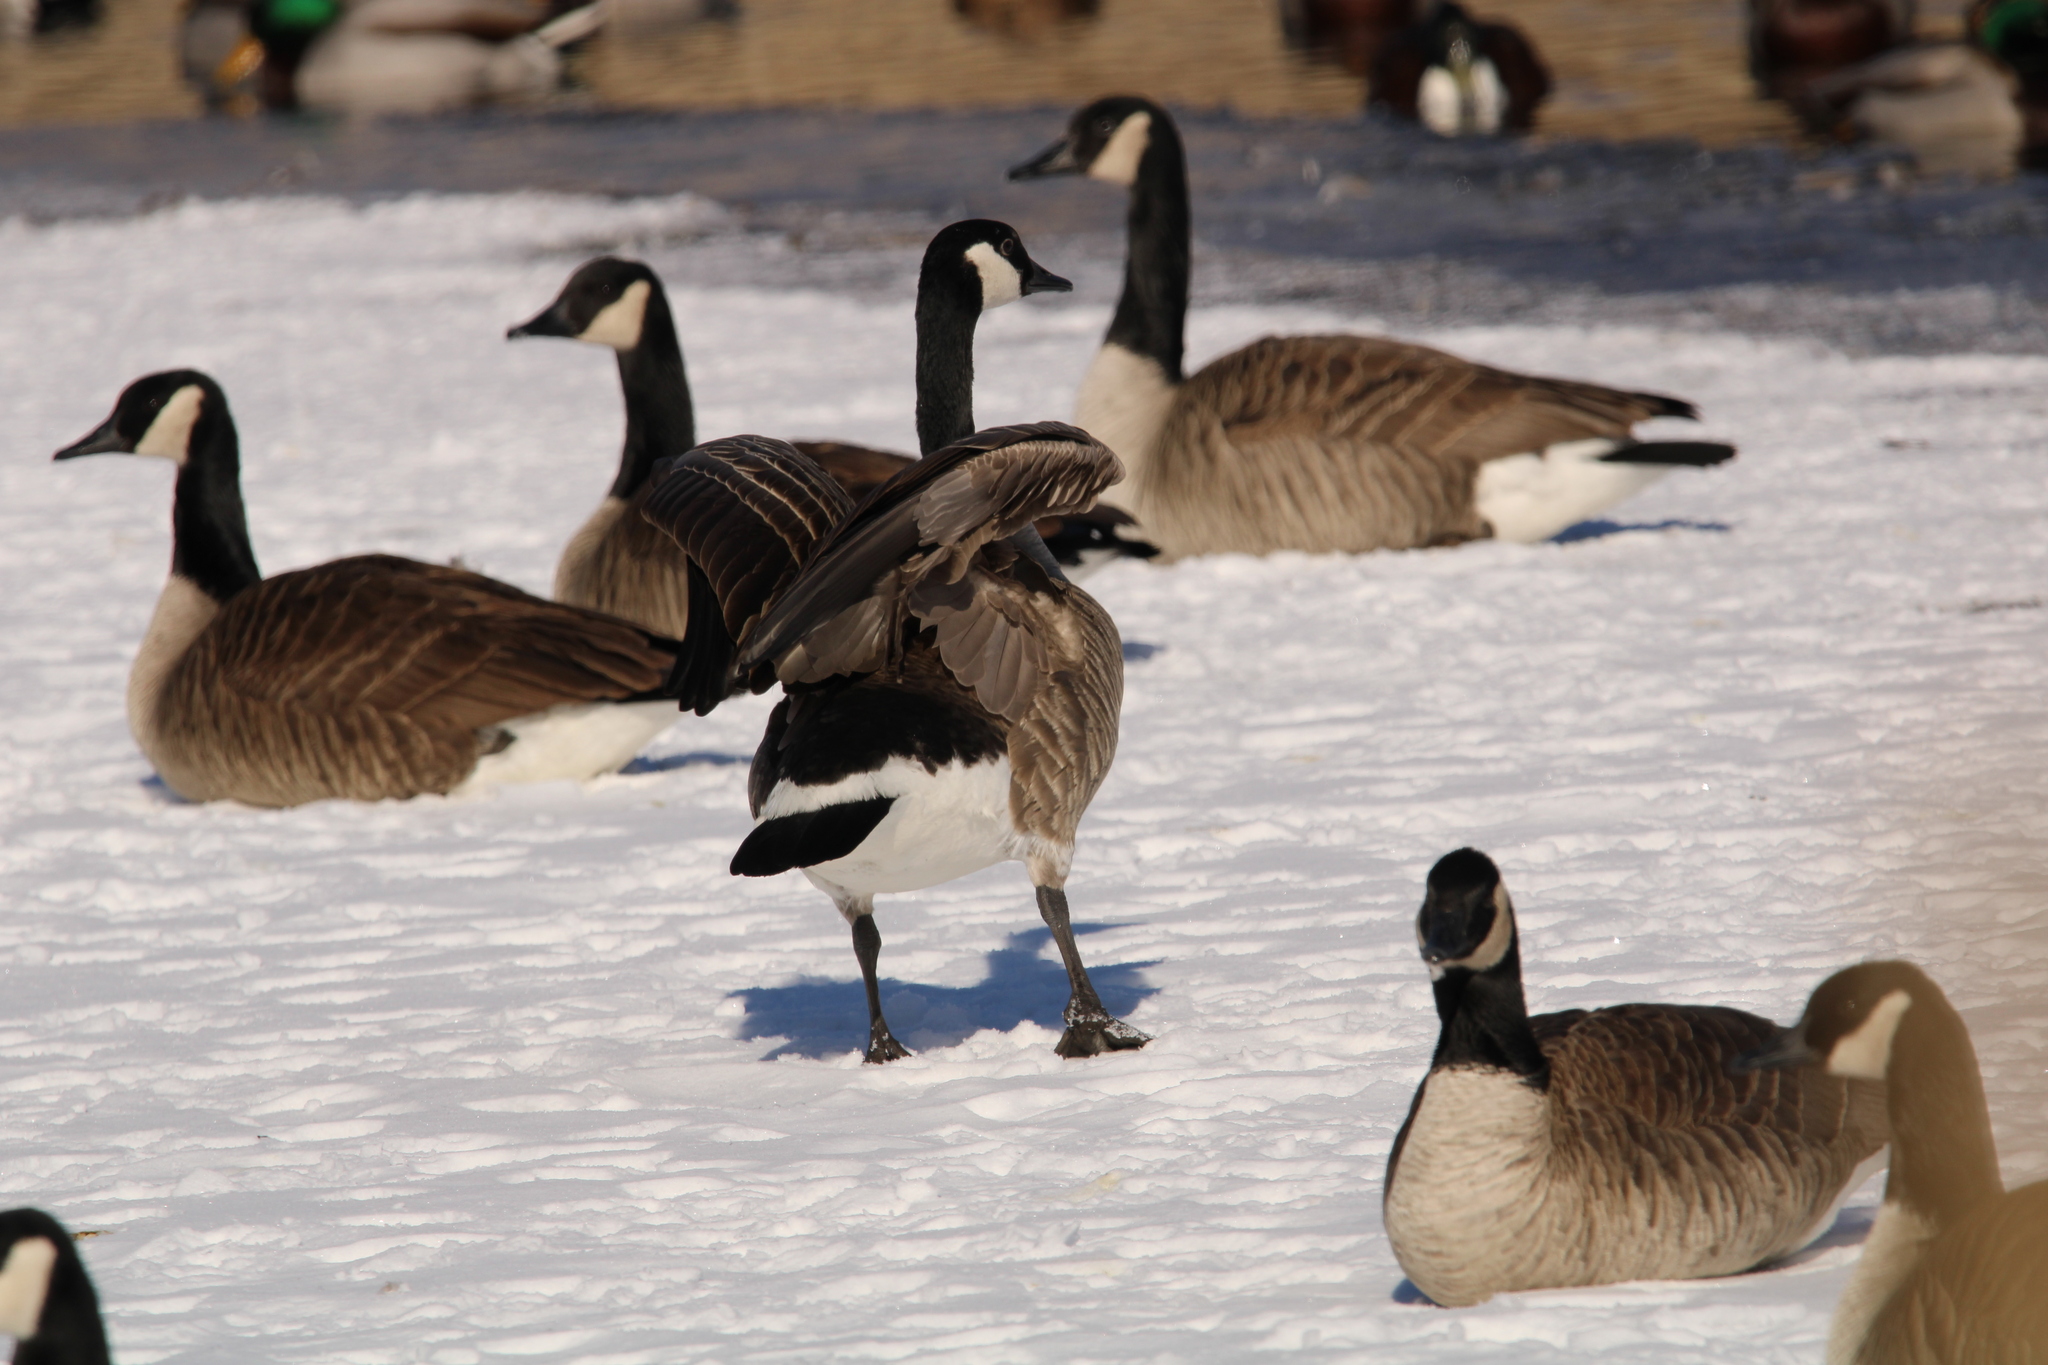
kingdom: Animalia
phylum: Chordata
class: Aves
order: Anseriformes
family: Anatidae
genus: Branta
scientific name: Branta canadensis
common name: Canada goose
